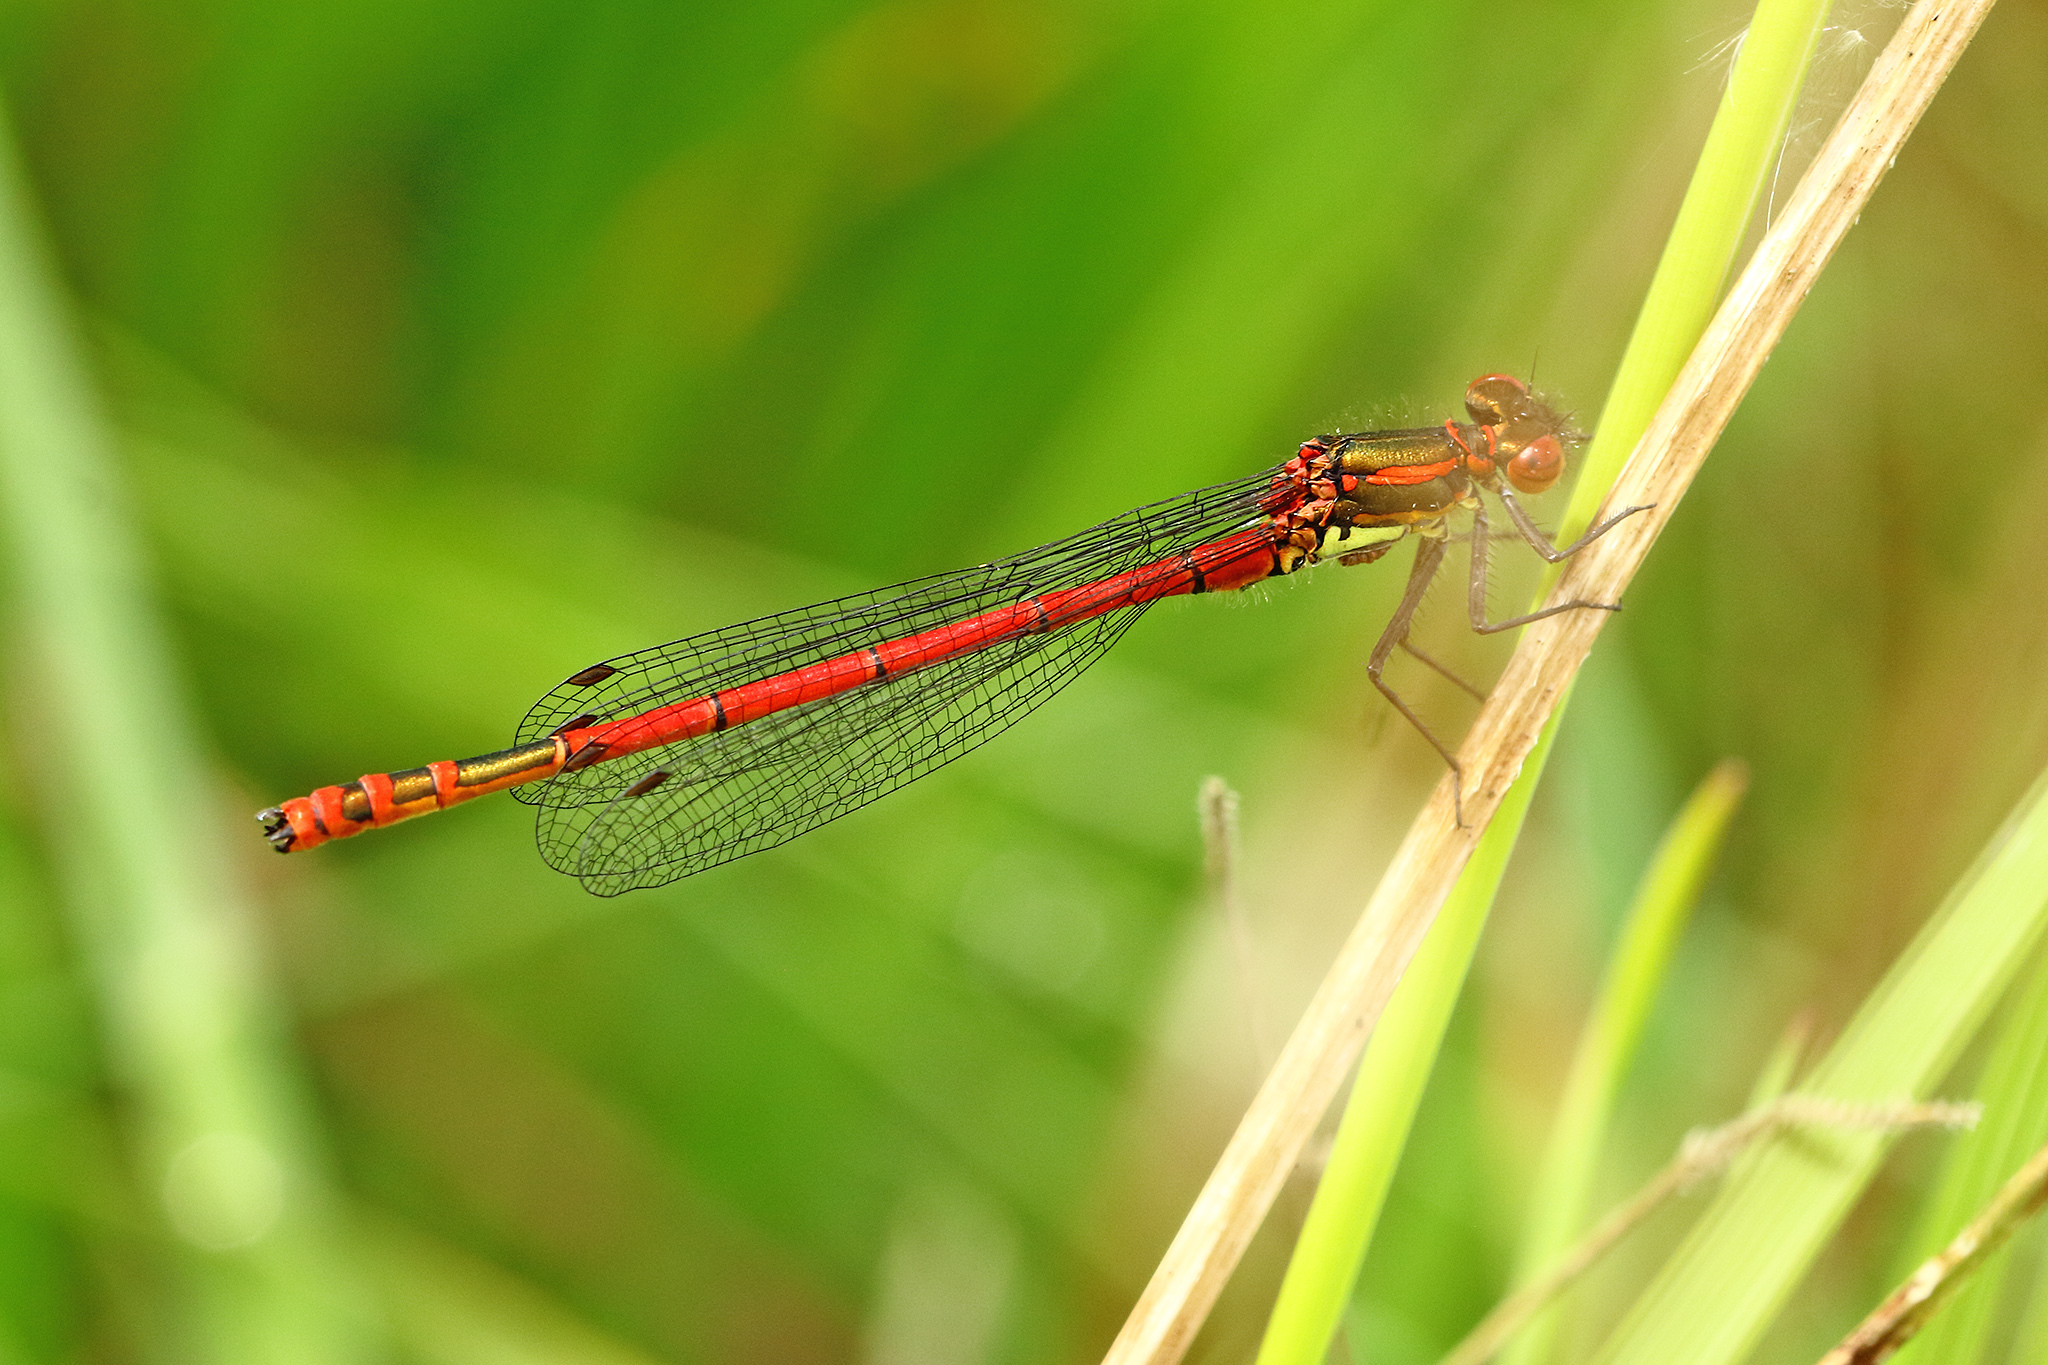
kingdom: Animalia
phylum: Arthropoda
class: Insecta
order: Odonata
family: Coenagrionidae
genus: Pyrrhosoma
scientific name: Pyrrhosoma nymphula
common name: Large red damsel
